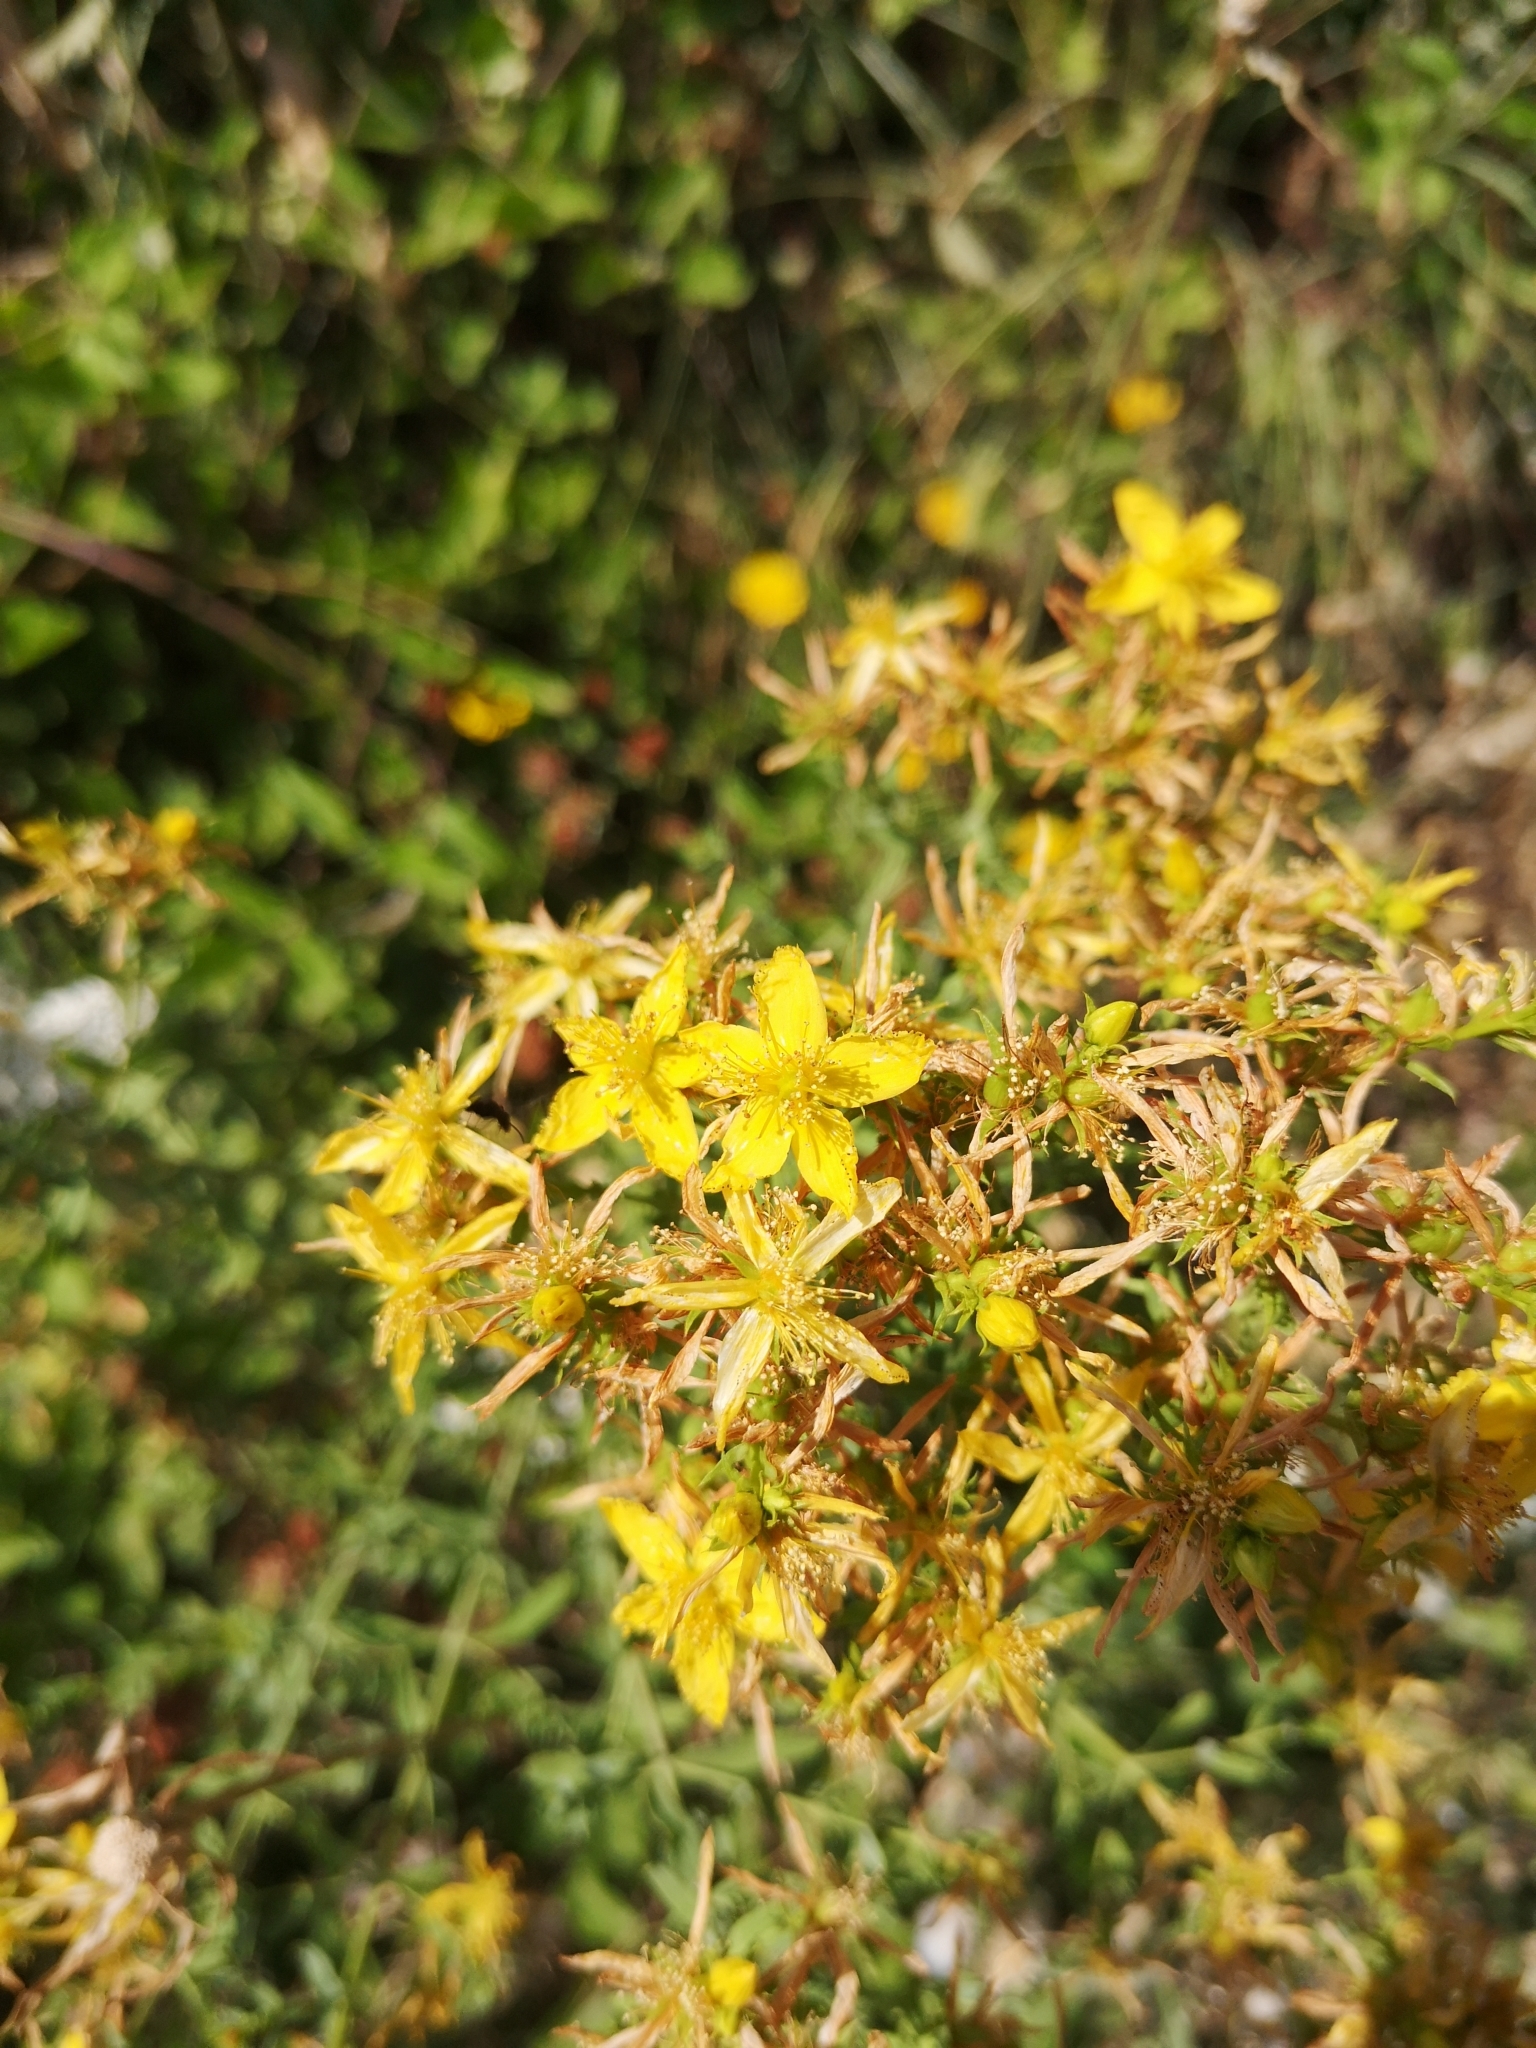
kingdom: Plantae
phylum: Tracheophyta
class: Magnoliopsida
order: Malpighiales
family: Hypericaceae
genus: Hypericum
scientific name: Hypericum perforatum
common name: Common st. johnswort
